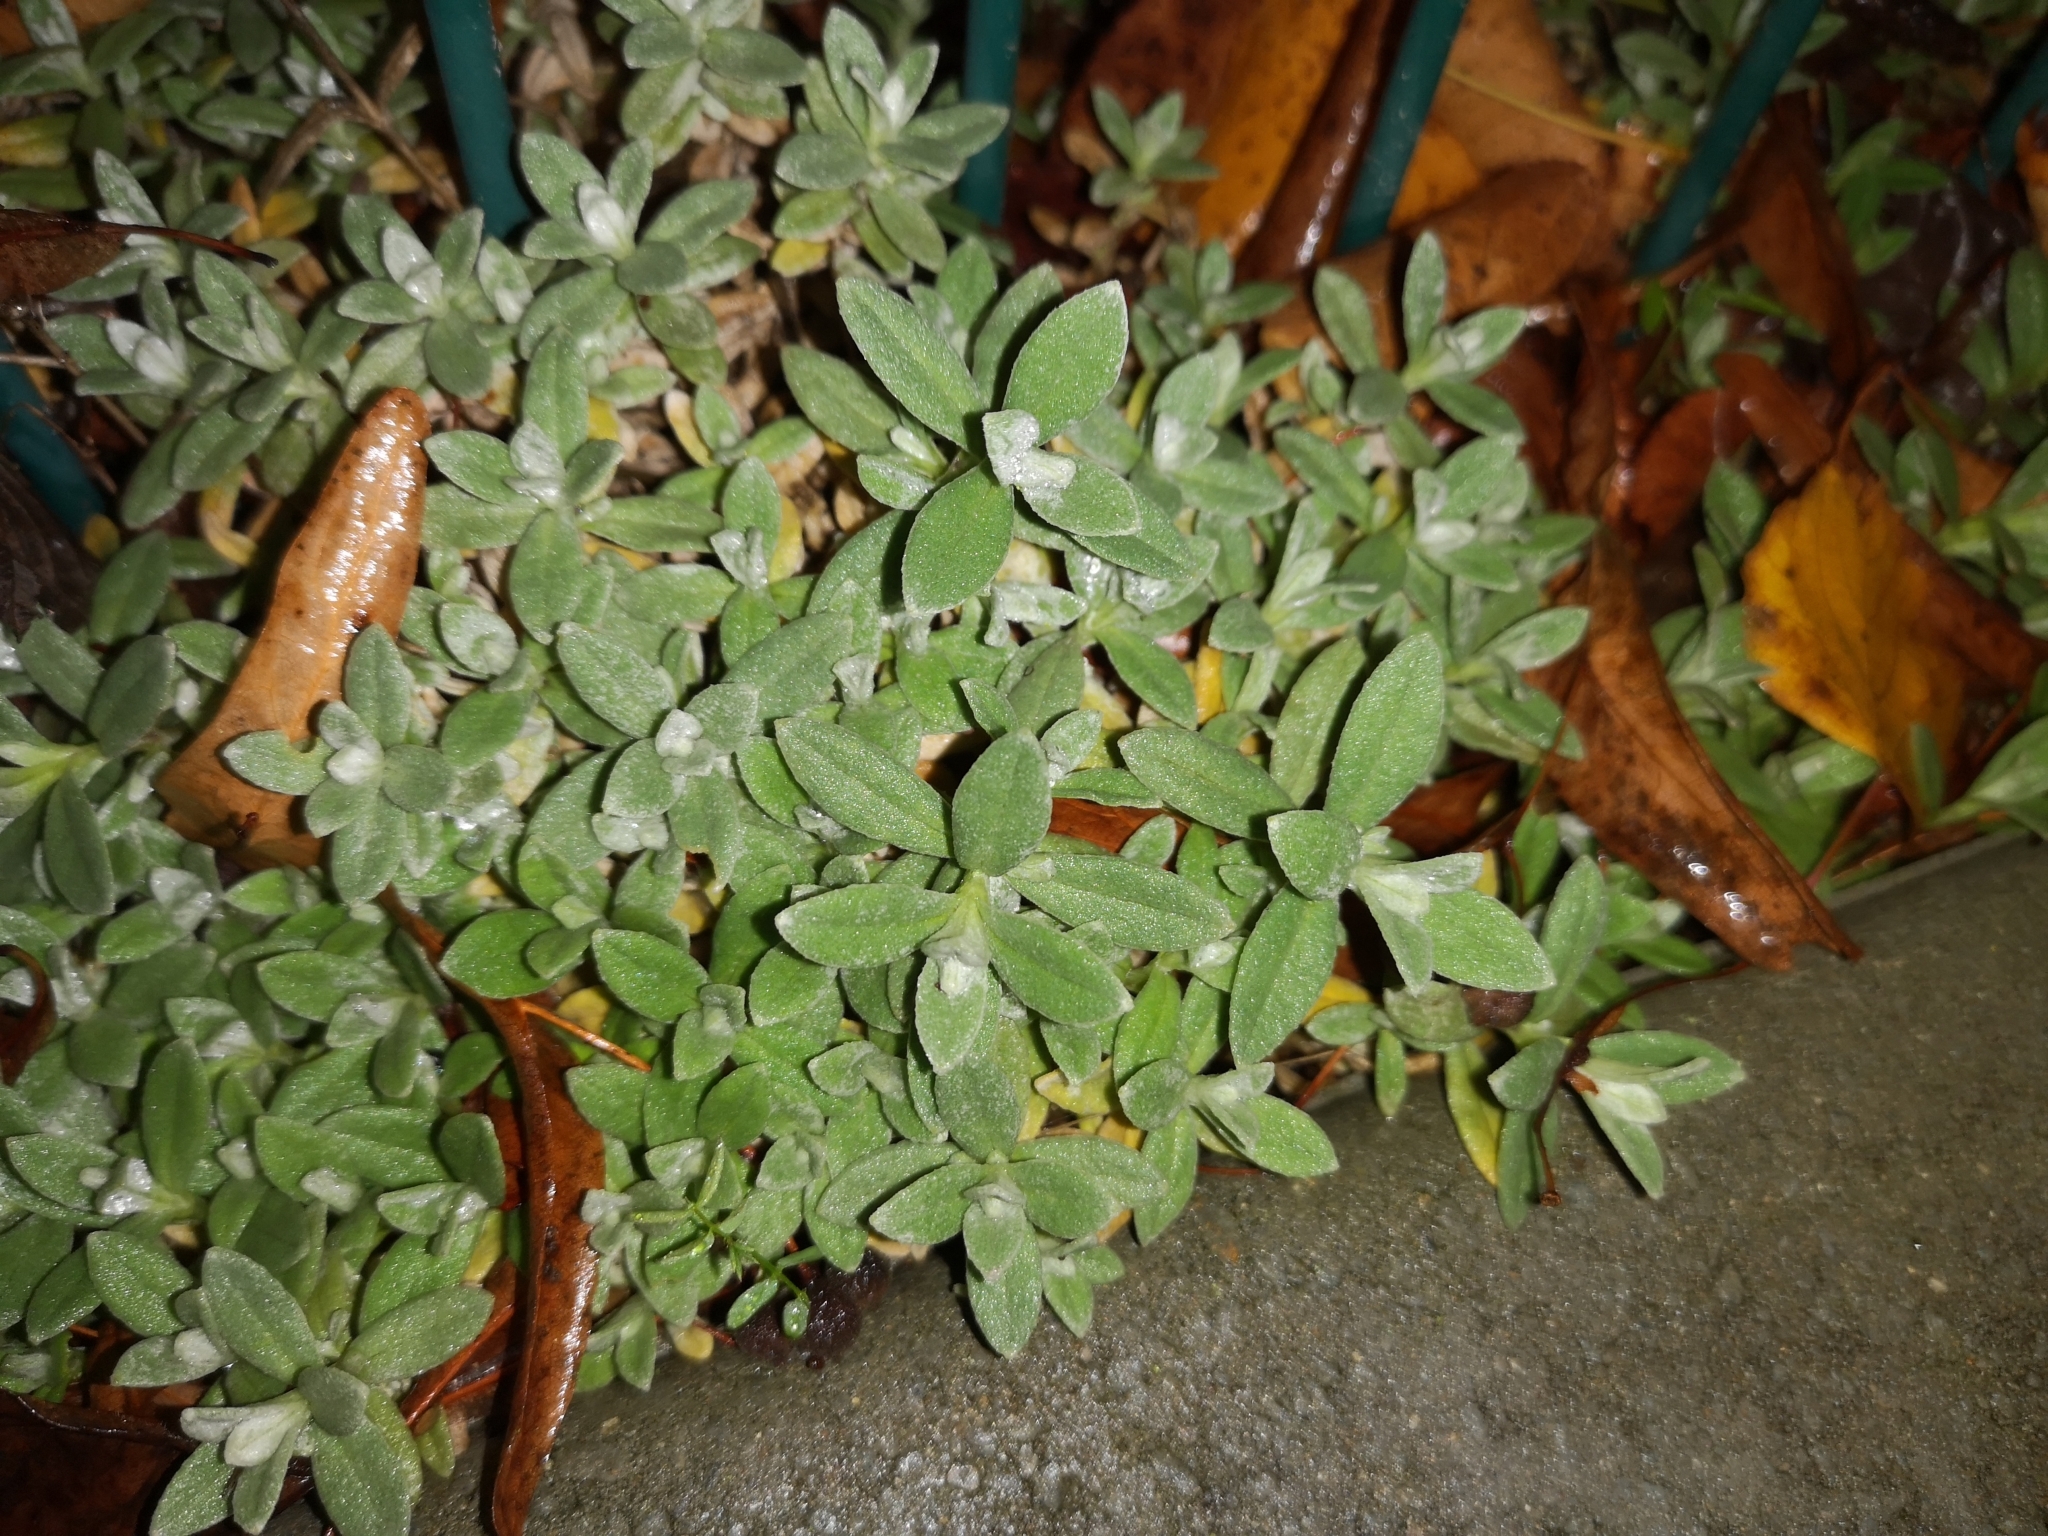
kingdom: Plantae
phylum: Tracheophyta
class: Magnoliopsida
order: Caryophyllales
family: Caryophyllaceae
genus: Cerastium
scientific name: Cerastium tomentosum
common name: Snow-in-summer
